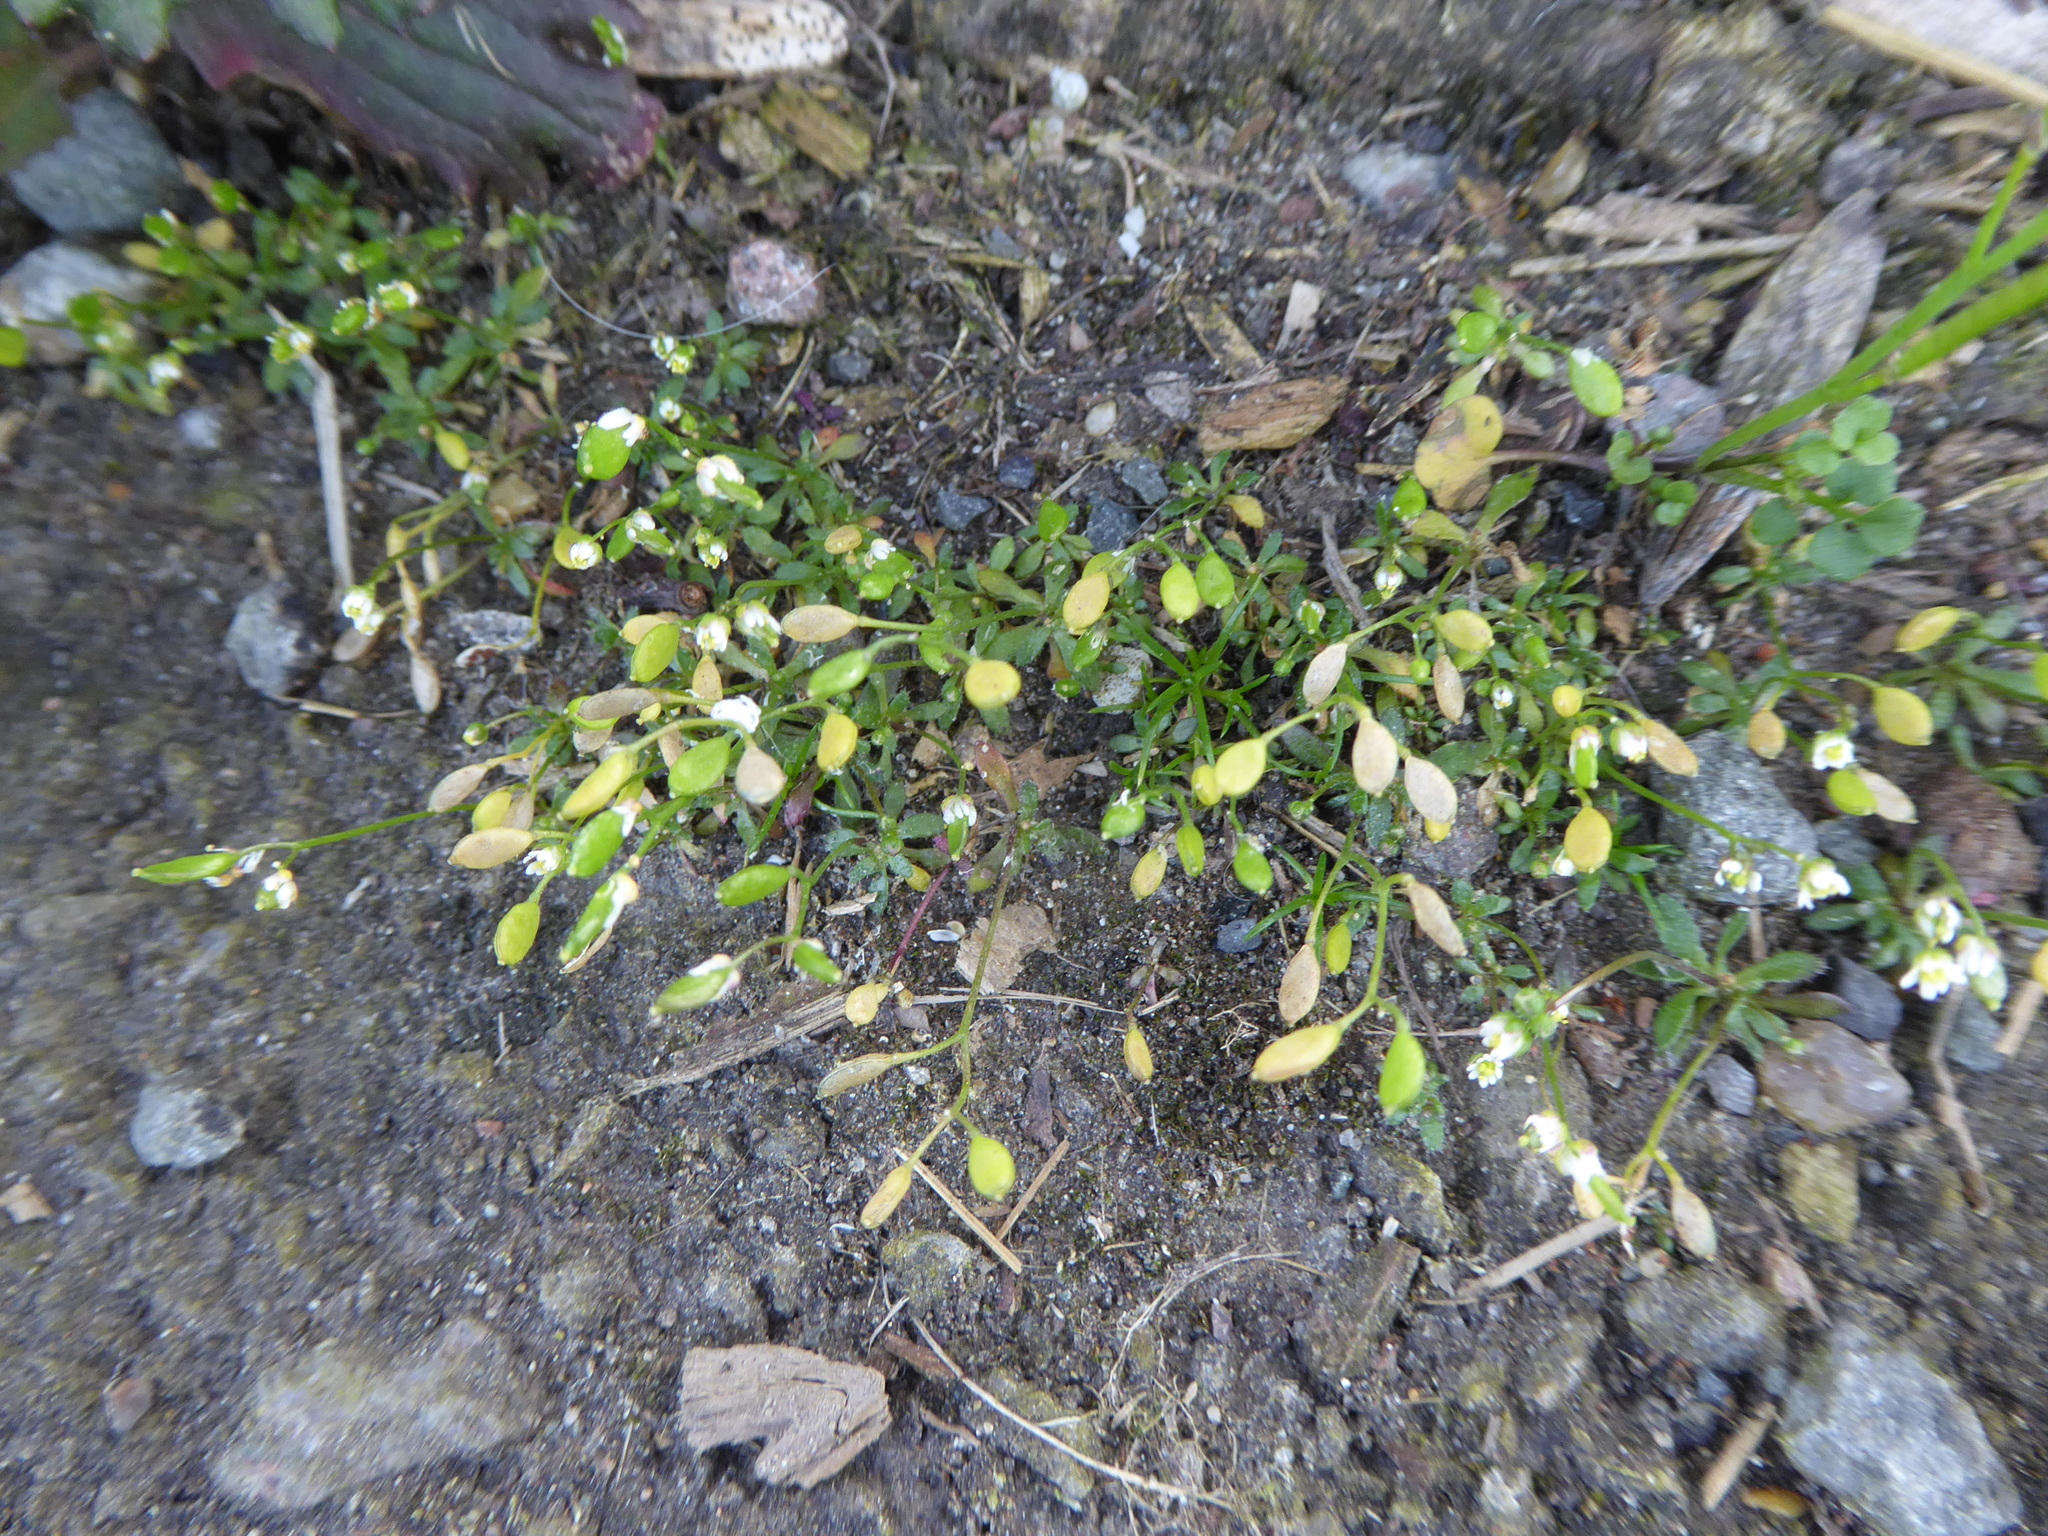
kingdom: Plantae
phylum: Tracheophyta
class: Magnoliopsida
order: Brassicales
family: Brassicaceae
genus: Draba
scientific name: Draba verna
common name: Spring draba
